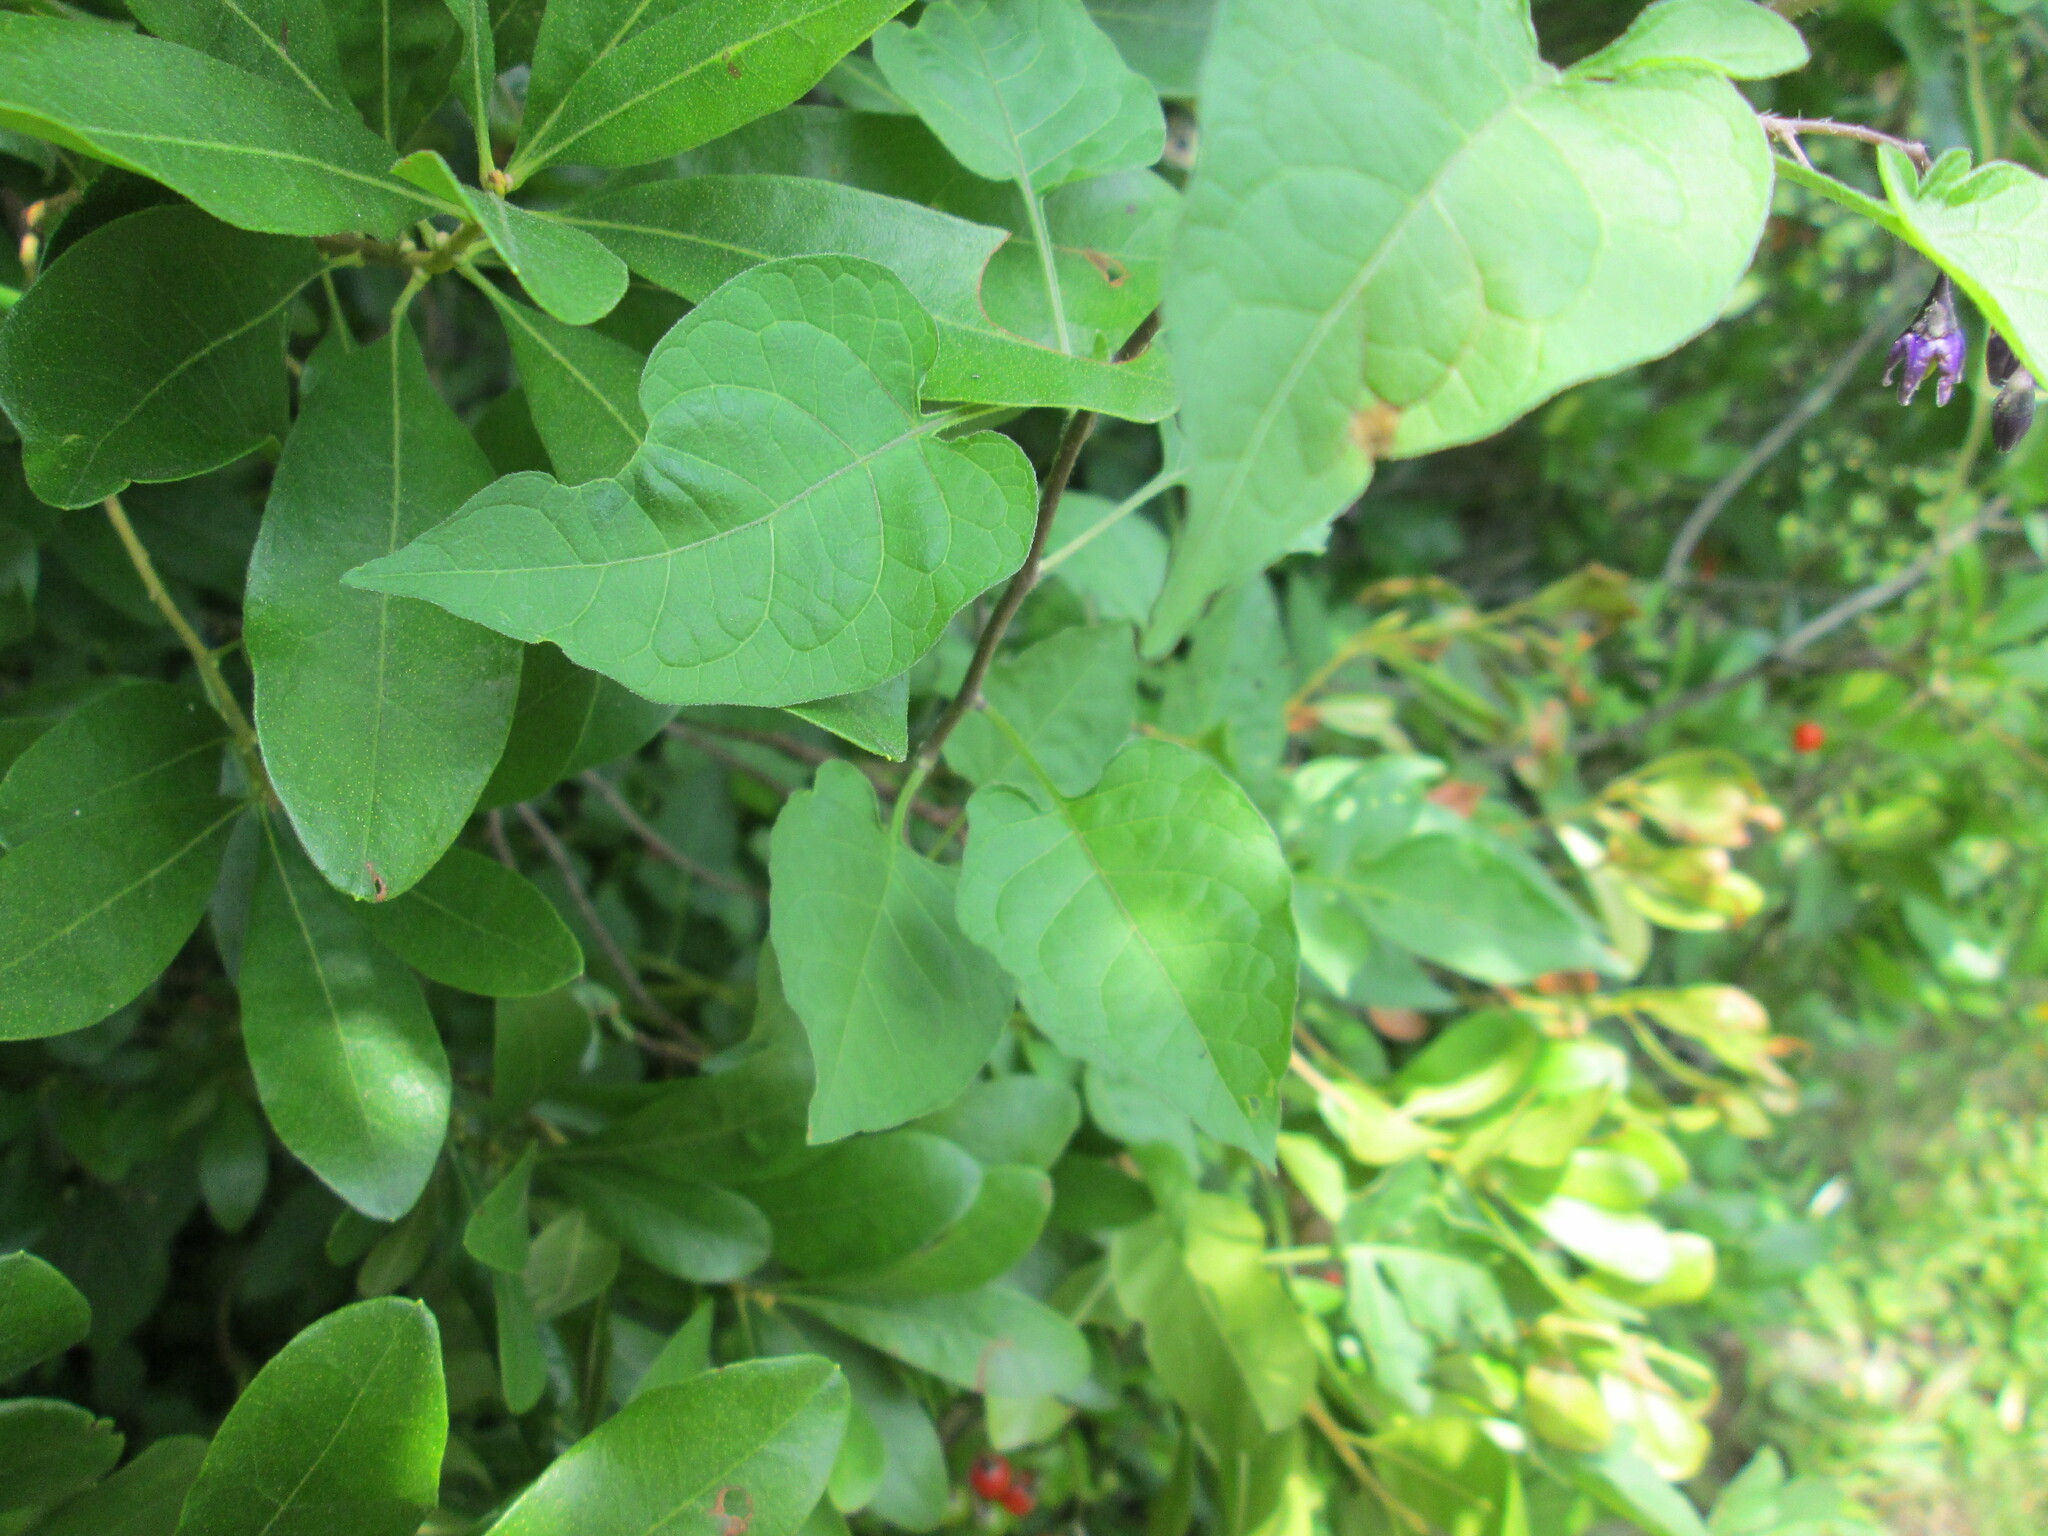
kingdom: Plantae
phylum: Tracheophyta
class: Magnoliopsida
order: Solanales
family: Solanaceae
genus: Solanum
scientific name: Solanum dulcamara
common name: Climbing nightshade
